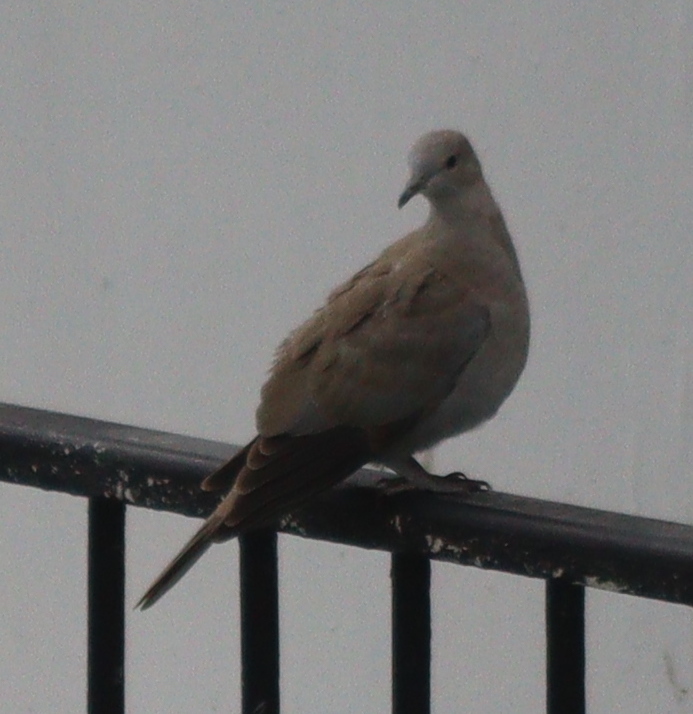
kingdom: Animalia
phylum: Chordata
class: Aves
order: Columbiformes
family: Columbidae
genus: Streptopelia
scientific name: Streptopelia decaocto
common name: Eurasian collared dove
